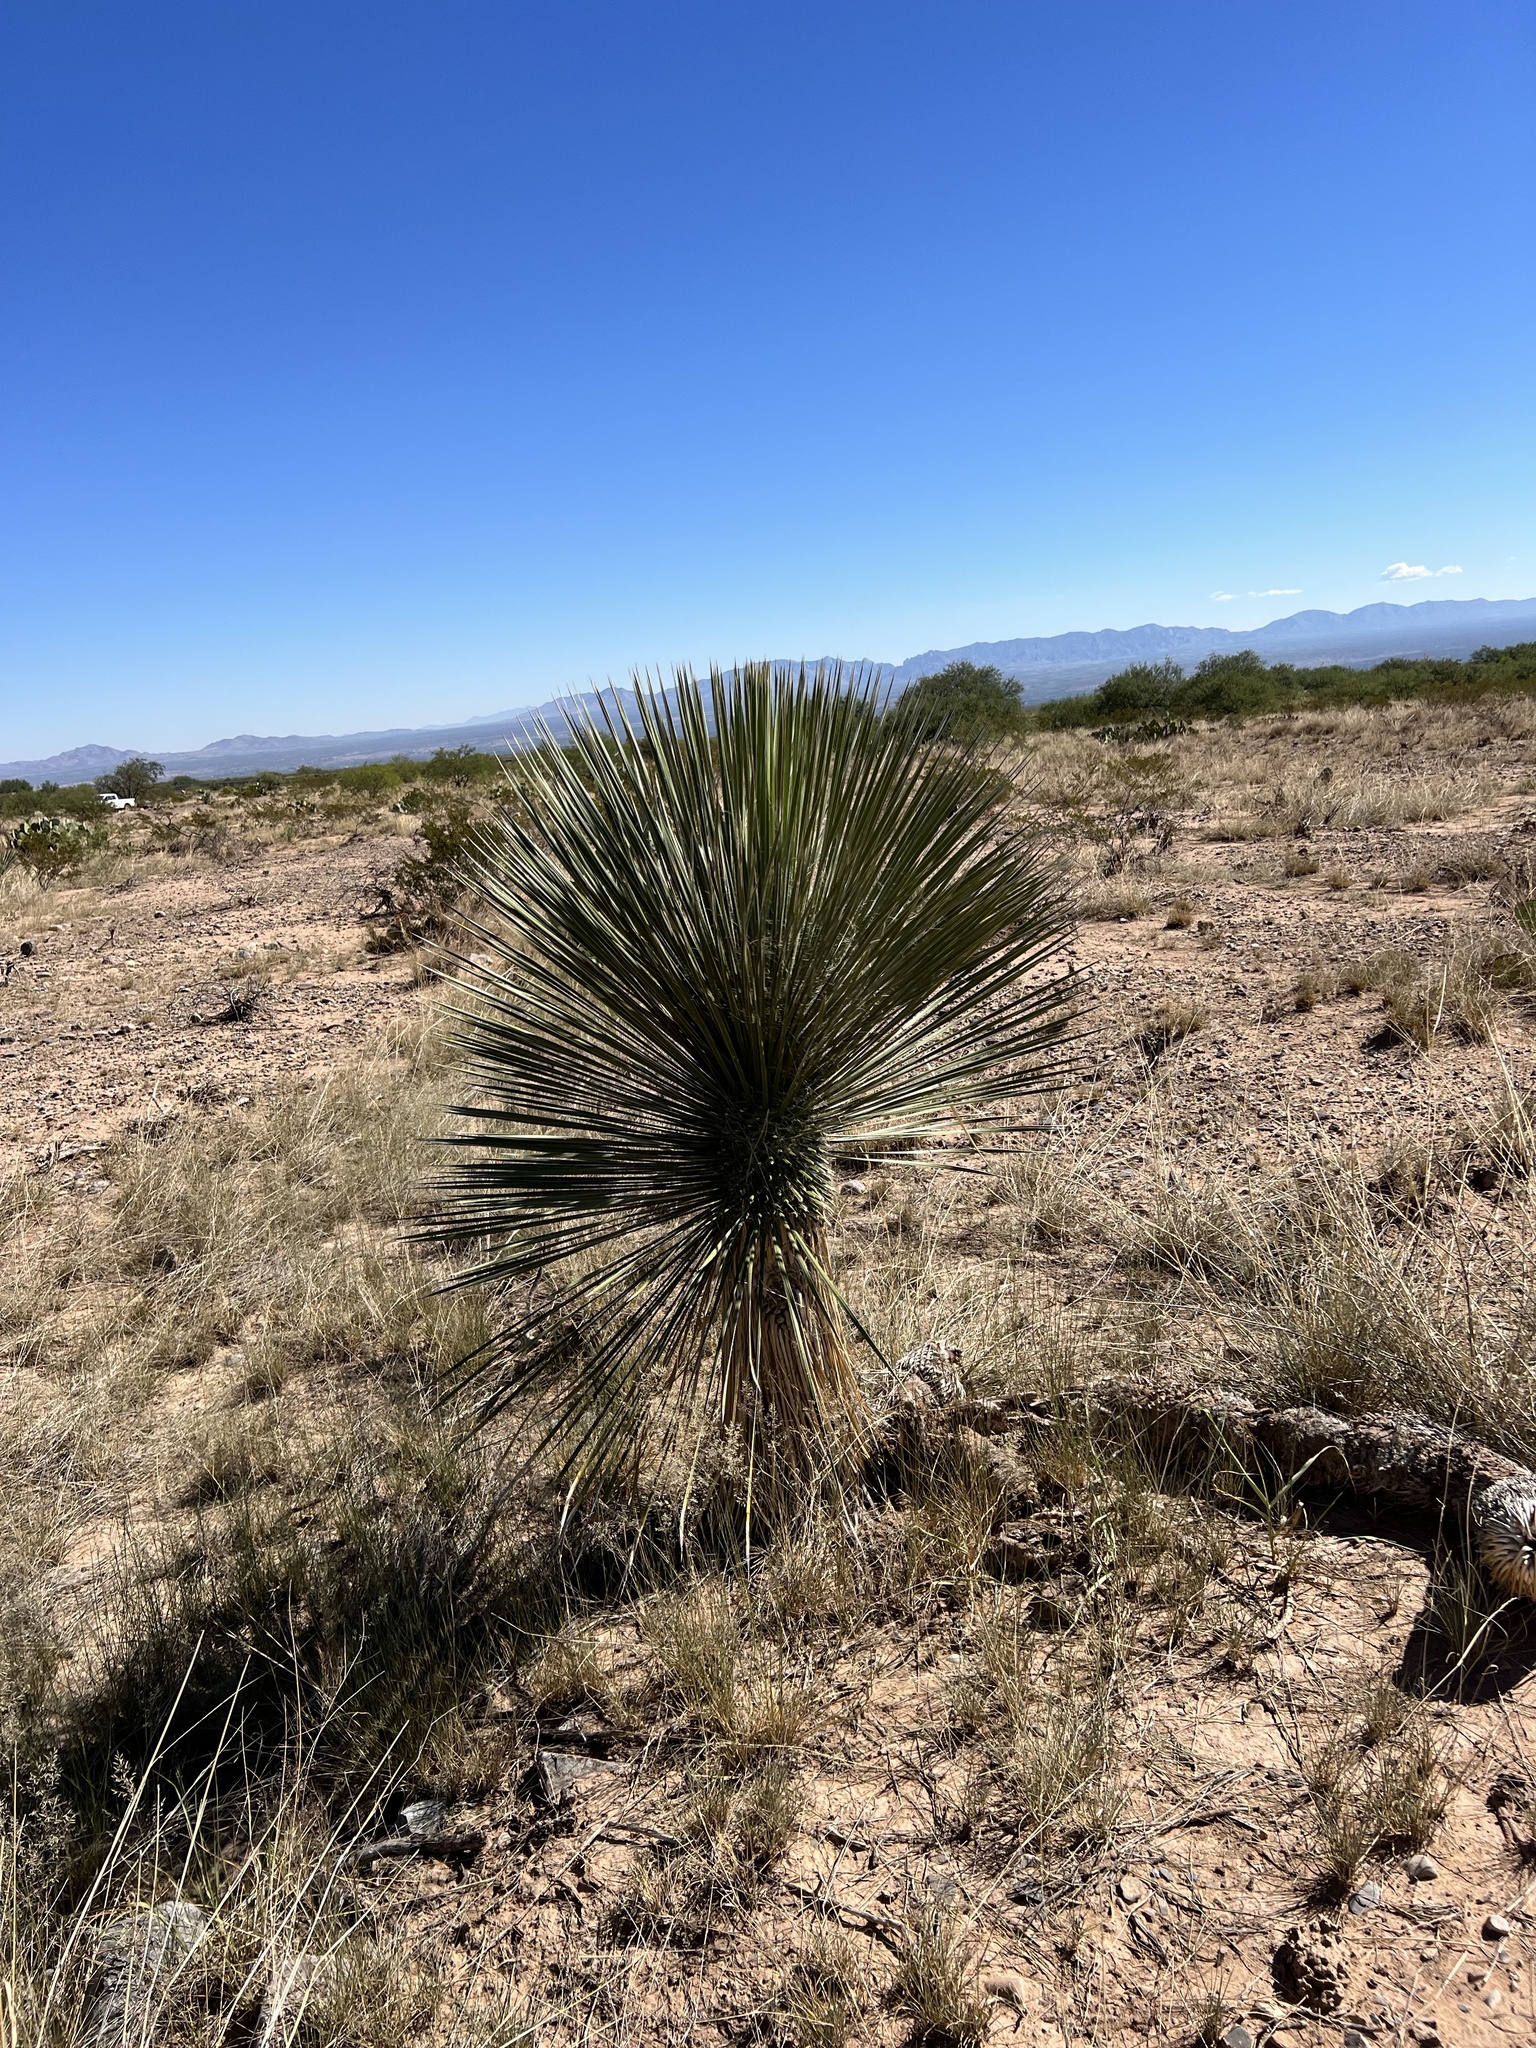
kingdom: Plantae
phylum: Tracheophyta
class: Liliopsida
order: Asparagales
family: Asparagaceae
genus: Yucca
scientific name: Yucca elata
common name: Palmella
